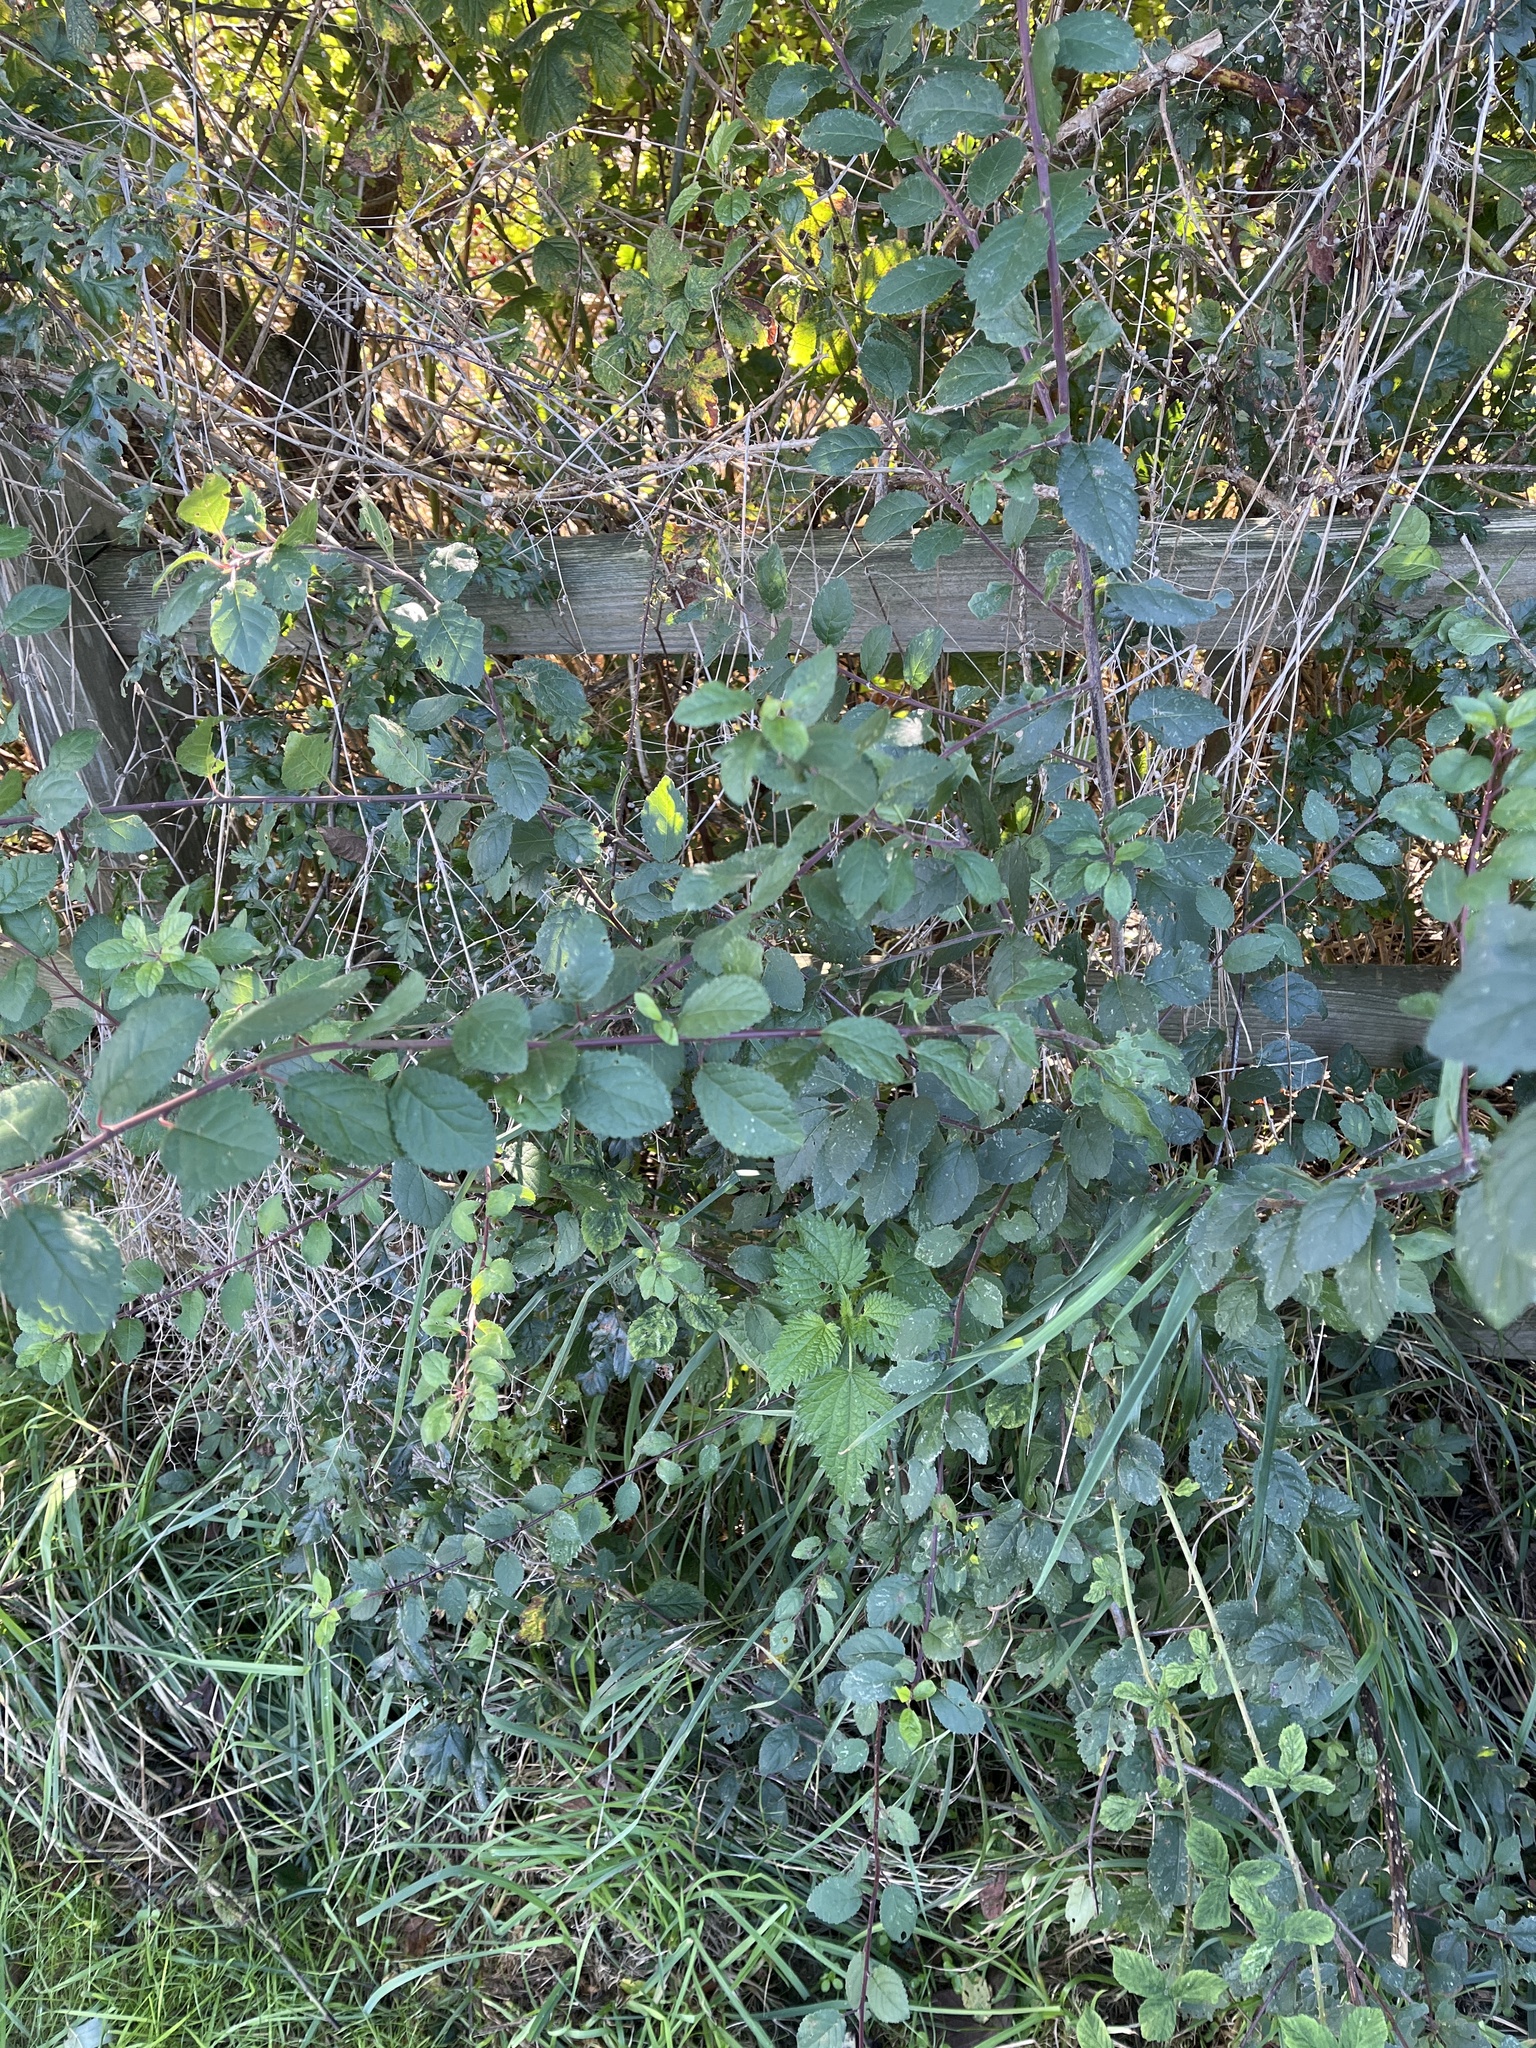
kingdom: Plantae
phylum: Tracheophyta
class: Magnoliopsida
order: Rosales
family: Rosaceae
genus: Prunus
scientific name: Prunus spinosa
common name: Blackthorn
